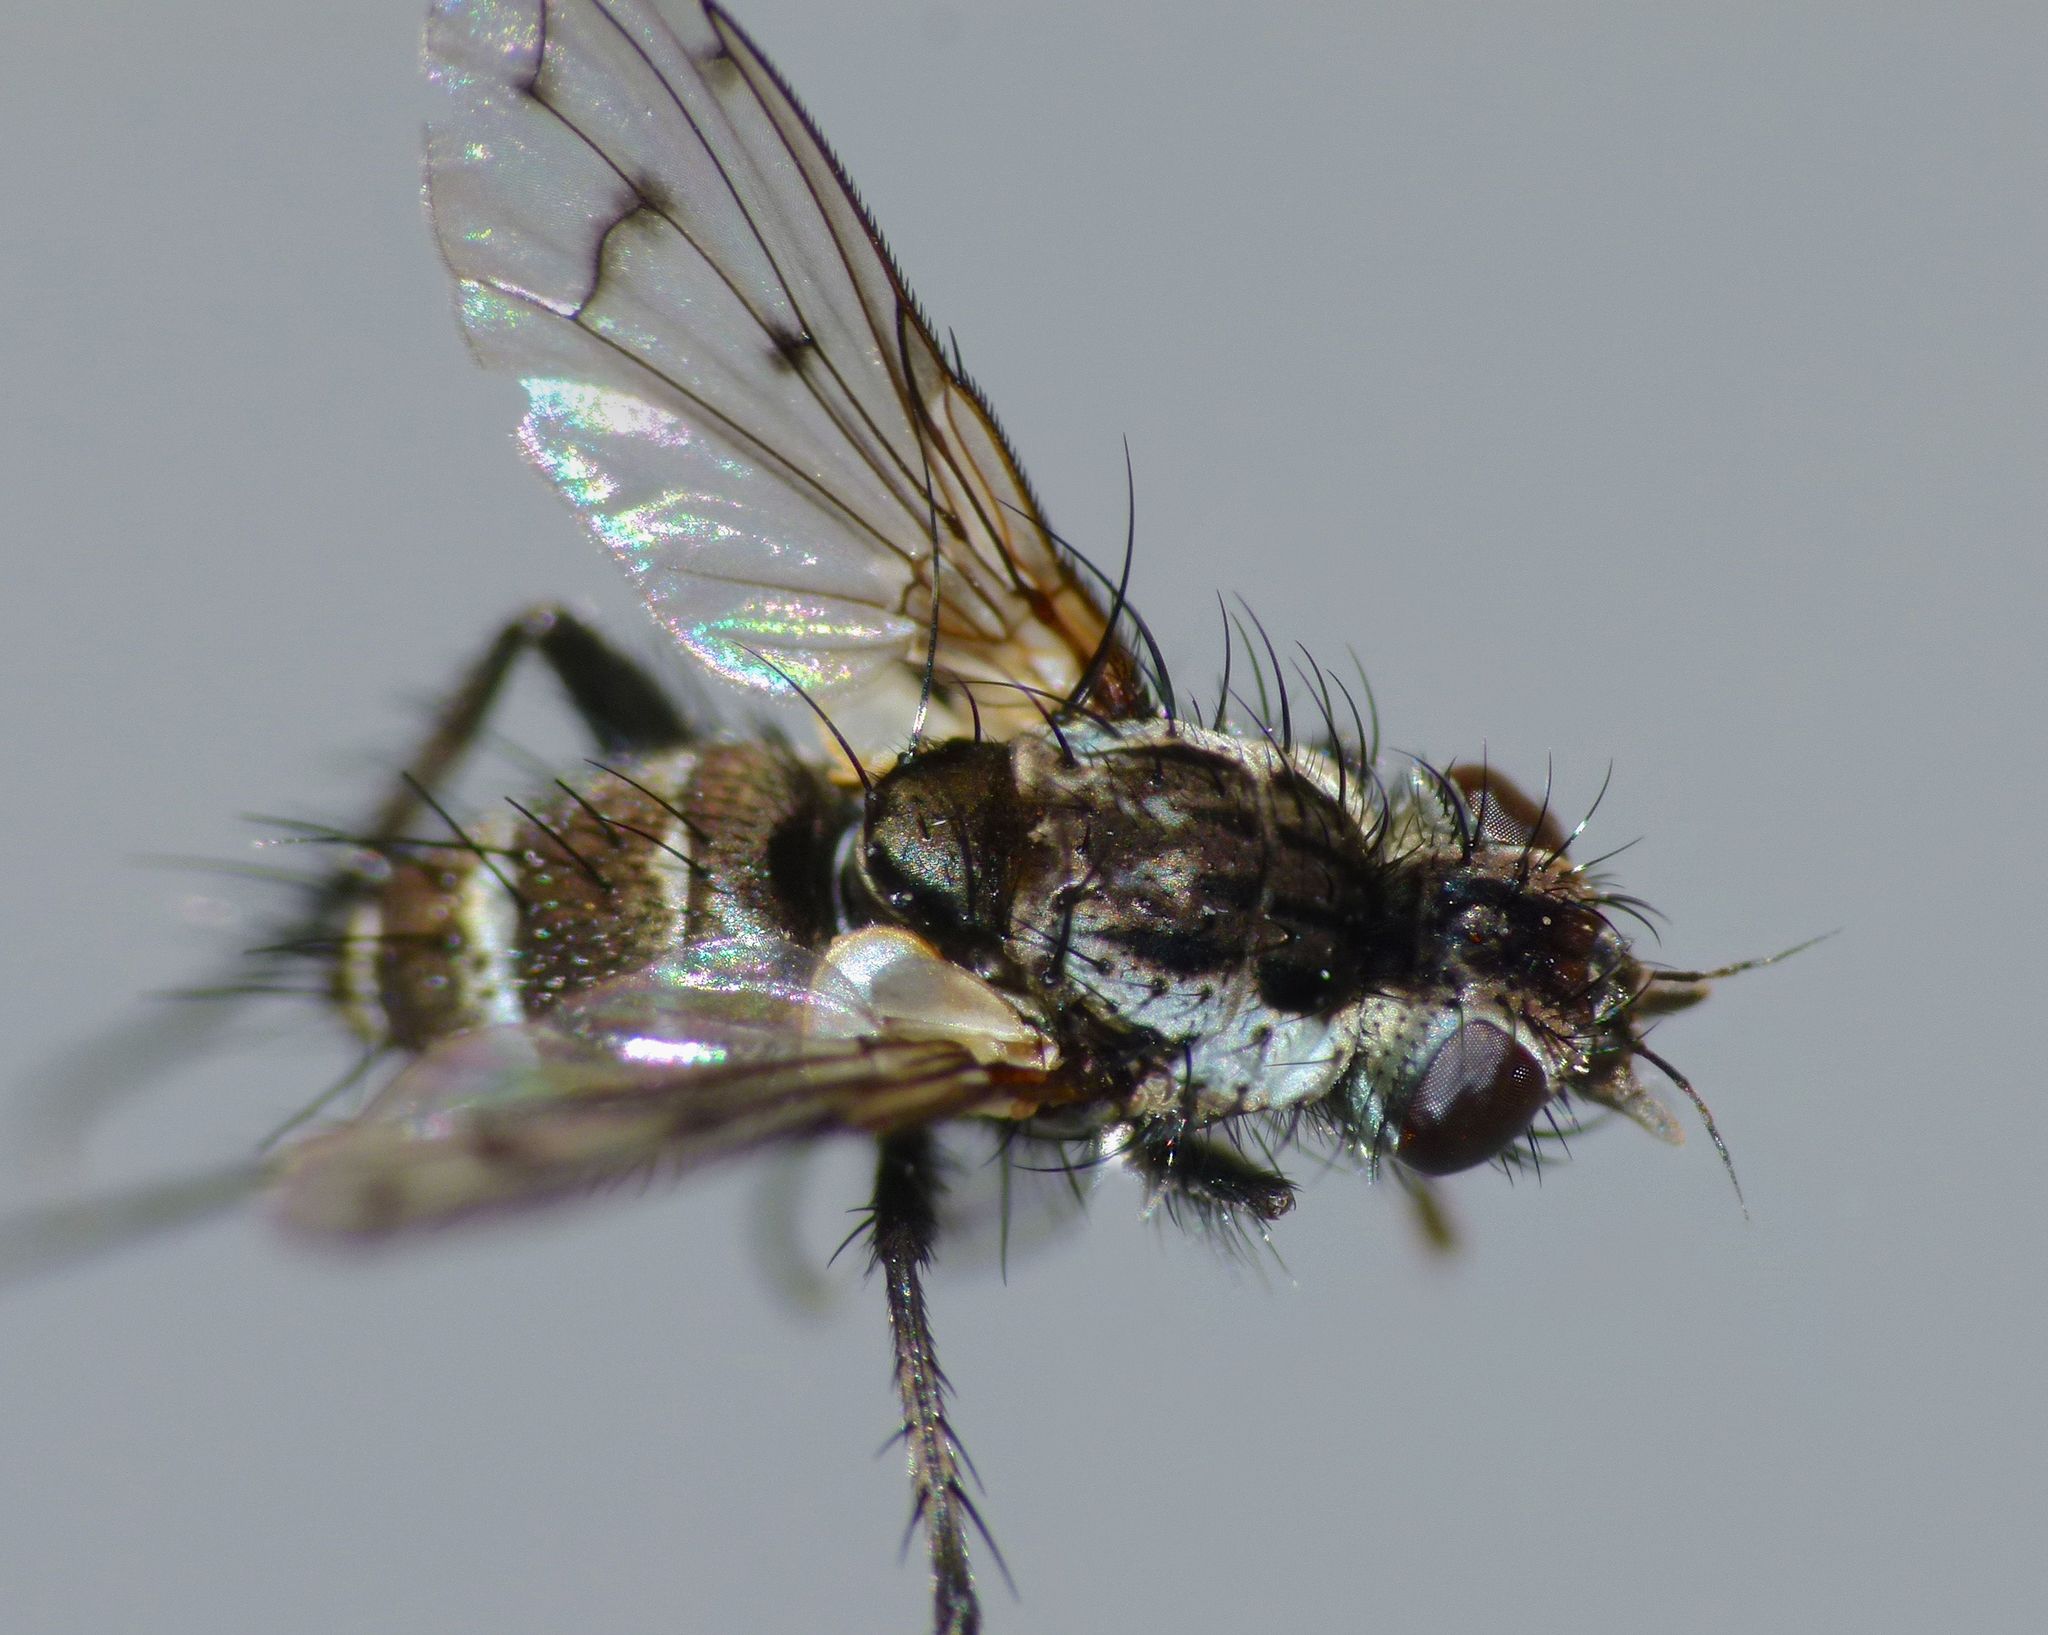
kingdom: Animalia
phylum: Arthropoda
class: Insecta
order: Diptera
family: Tachinidae
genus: Heteria
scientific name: Heteria appendiculata
